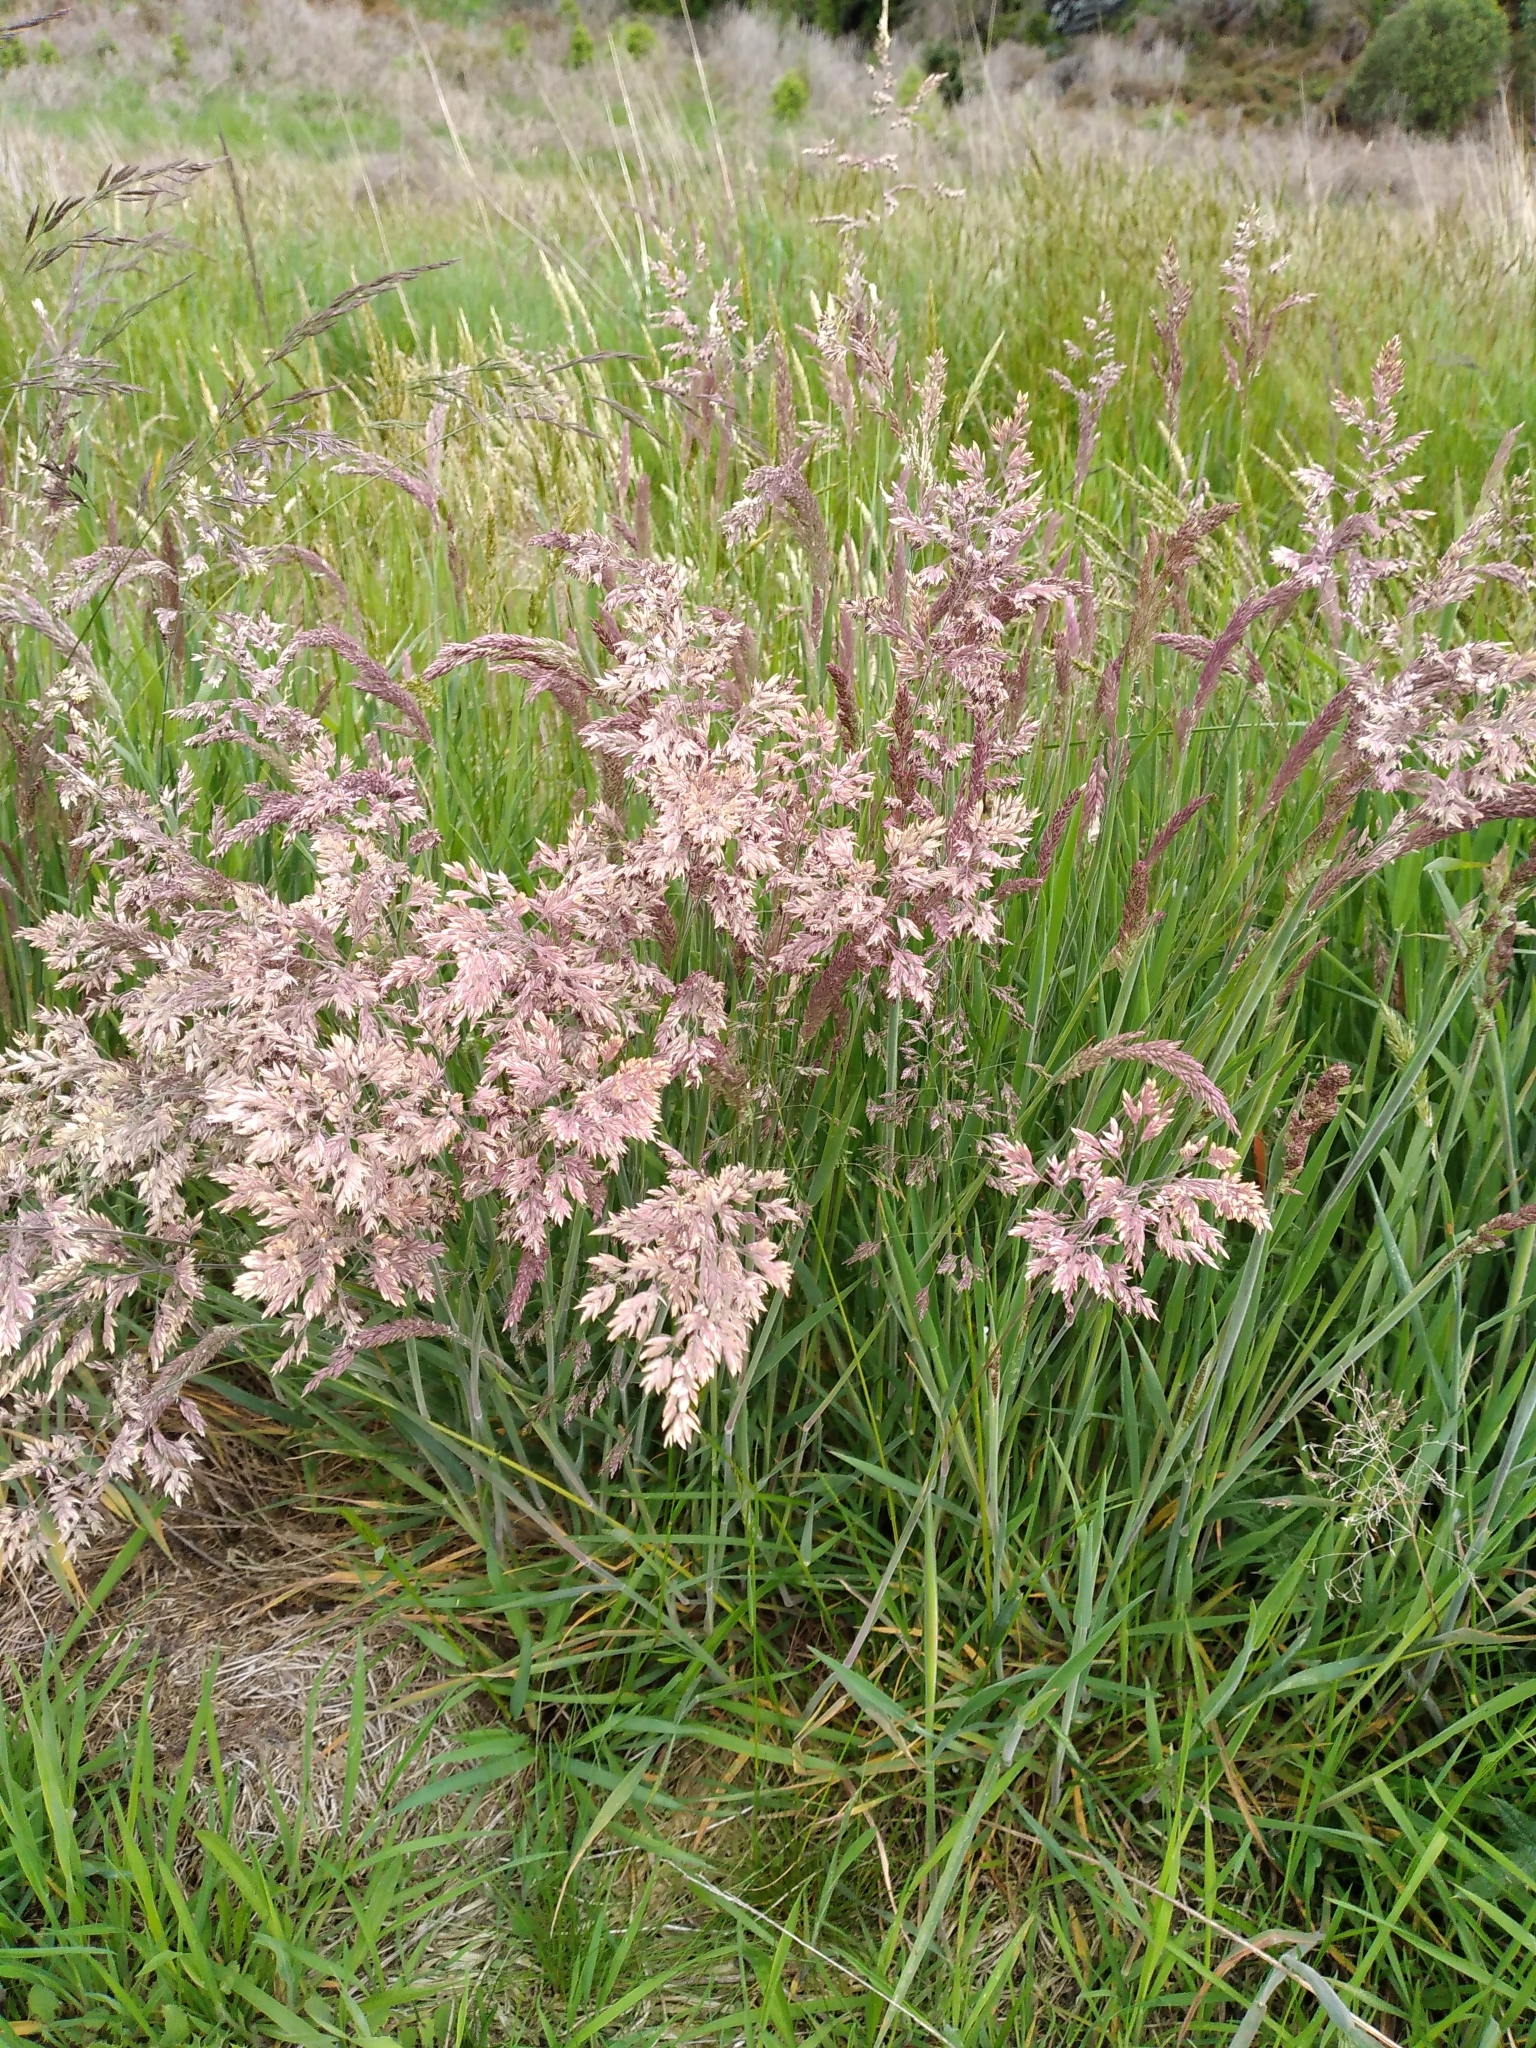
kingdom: Plantae
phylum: Tracheophyta
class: Liliopsida
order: Poales
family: Poaceae
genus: Holcus
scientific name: Holcus lanatus
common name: Yorkshire-fog
